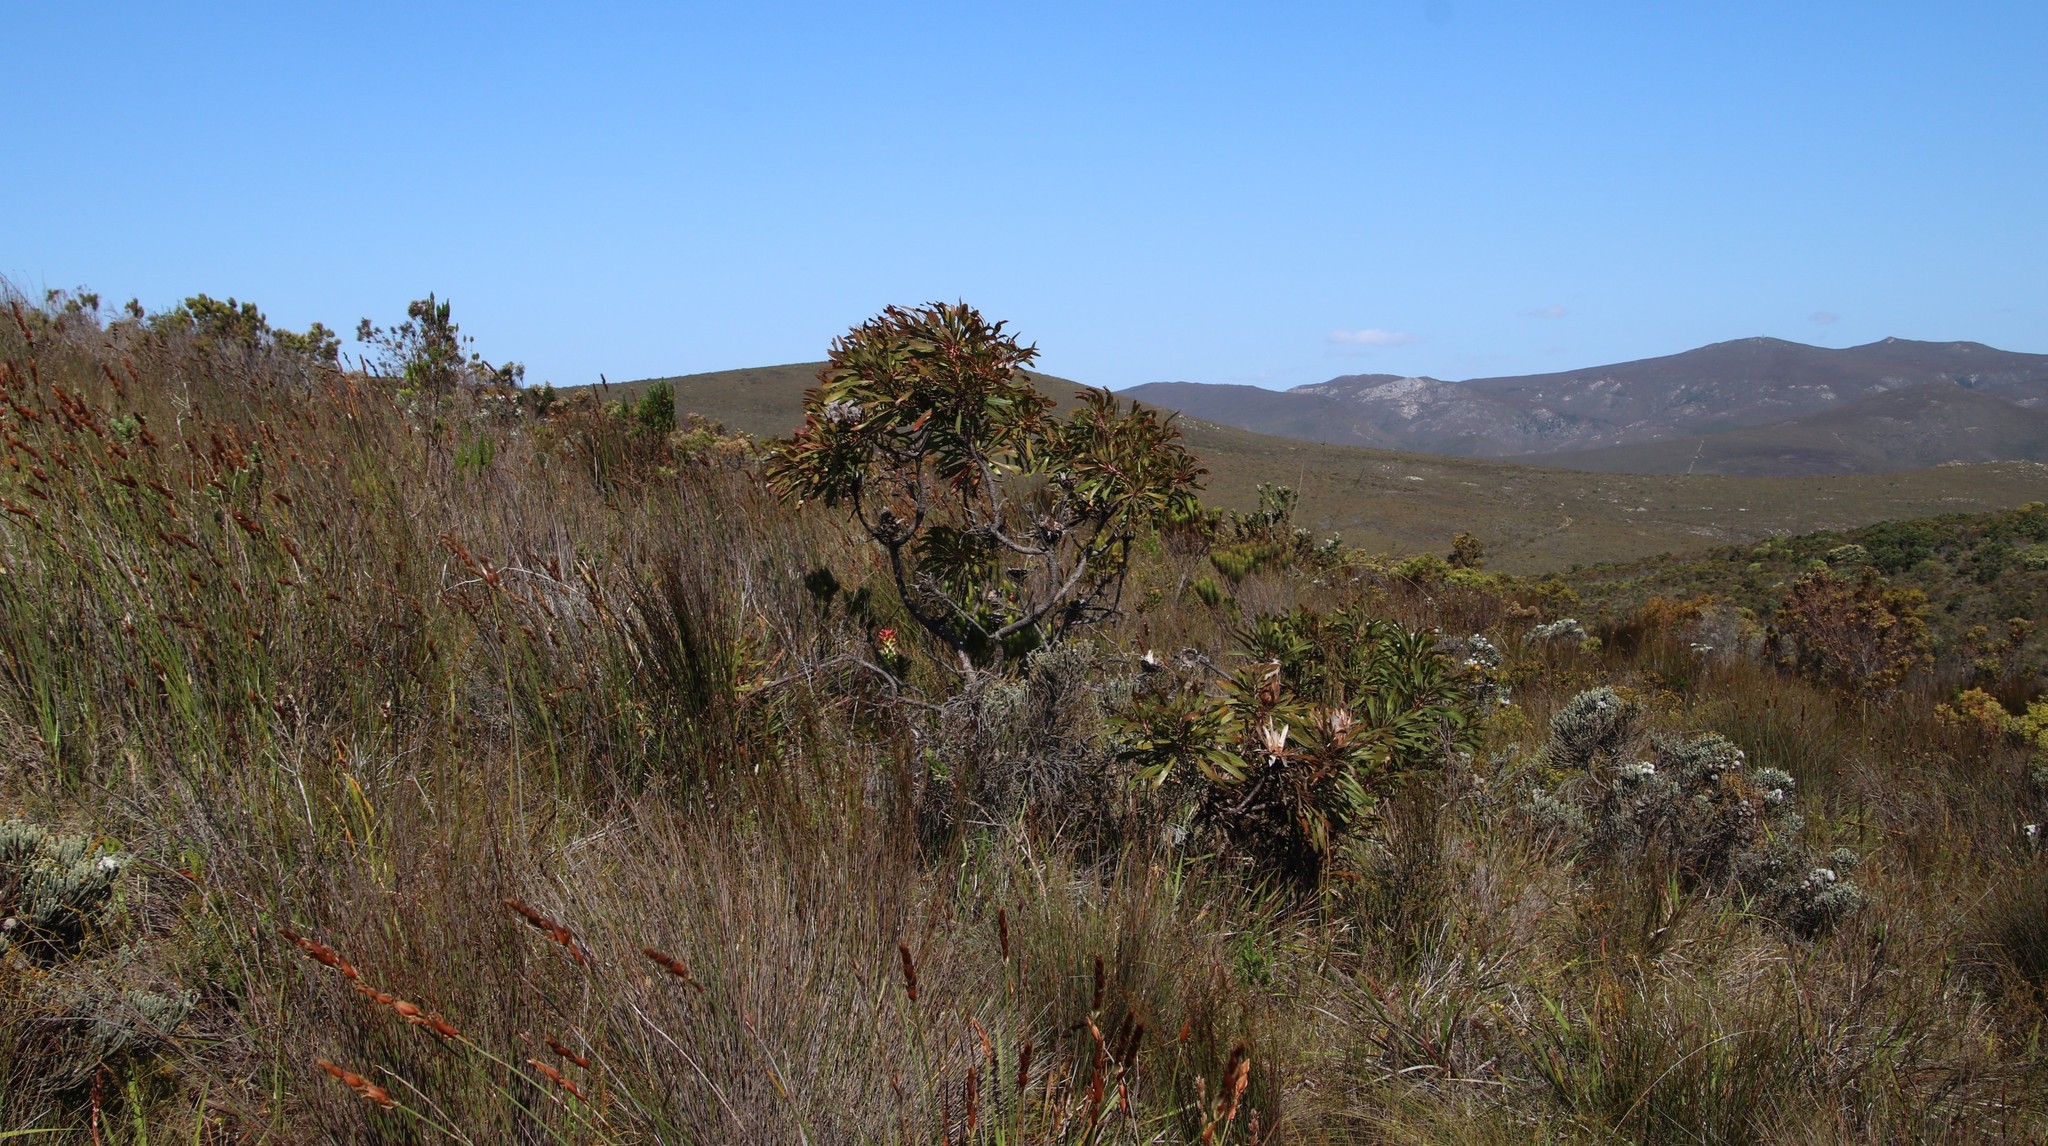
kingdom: Plantae
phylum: Tracheophyta
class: Magnoliopsida
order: Proteales
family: Proteaceae
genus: Protea
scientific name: Protea longifolia
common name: Long-leaf sugarbush
